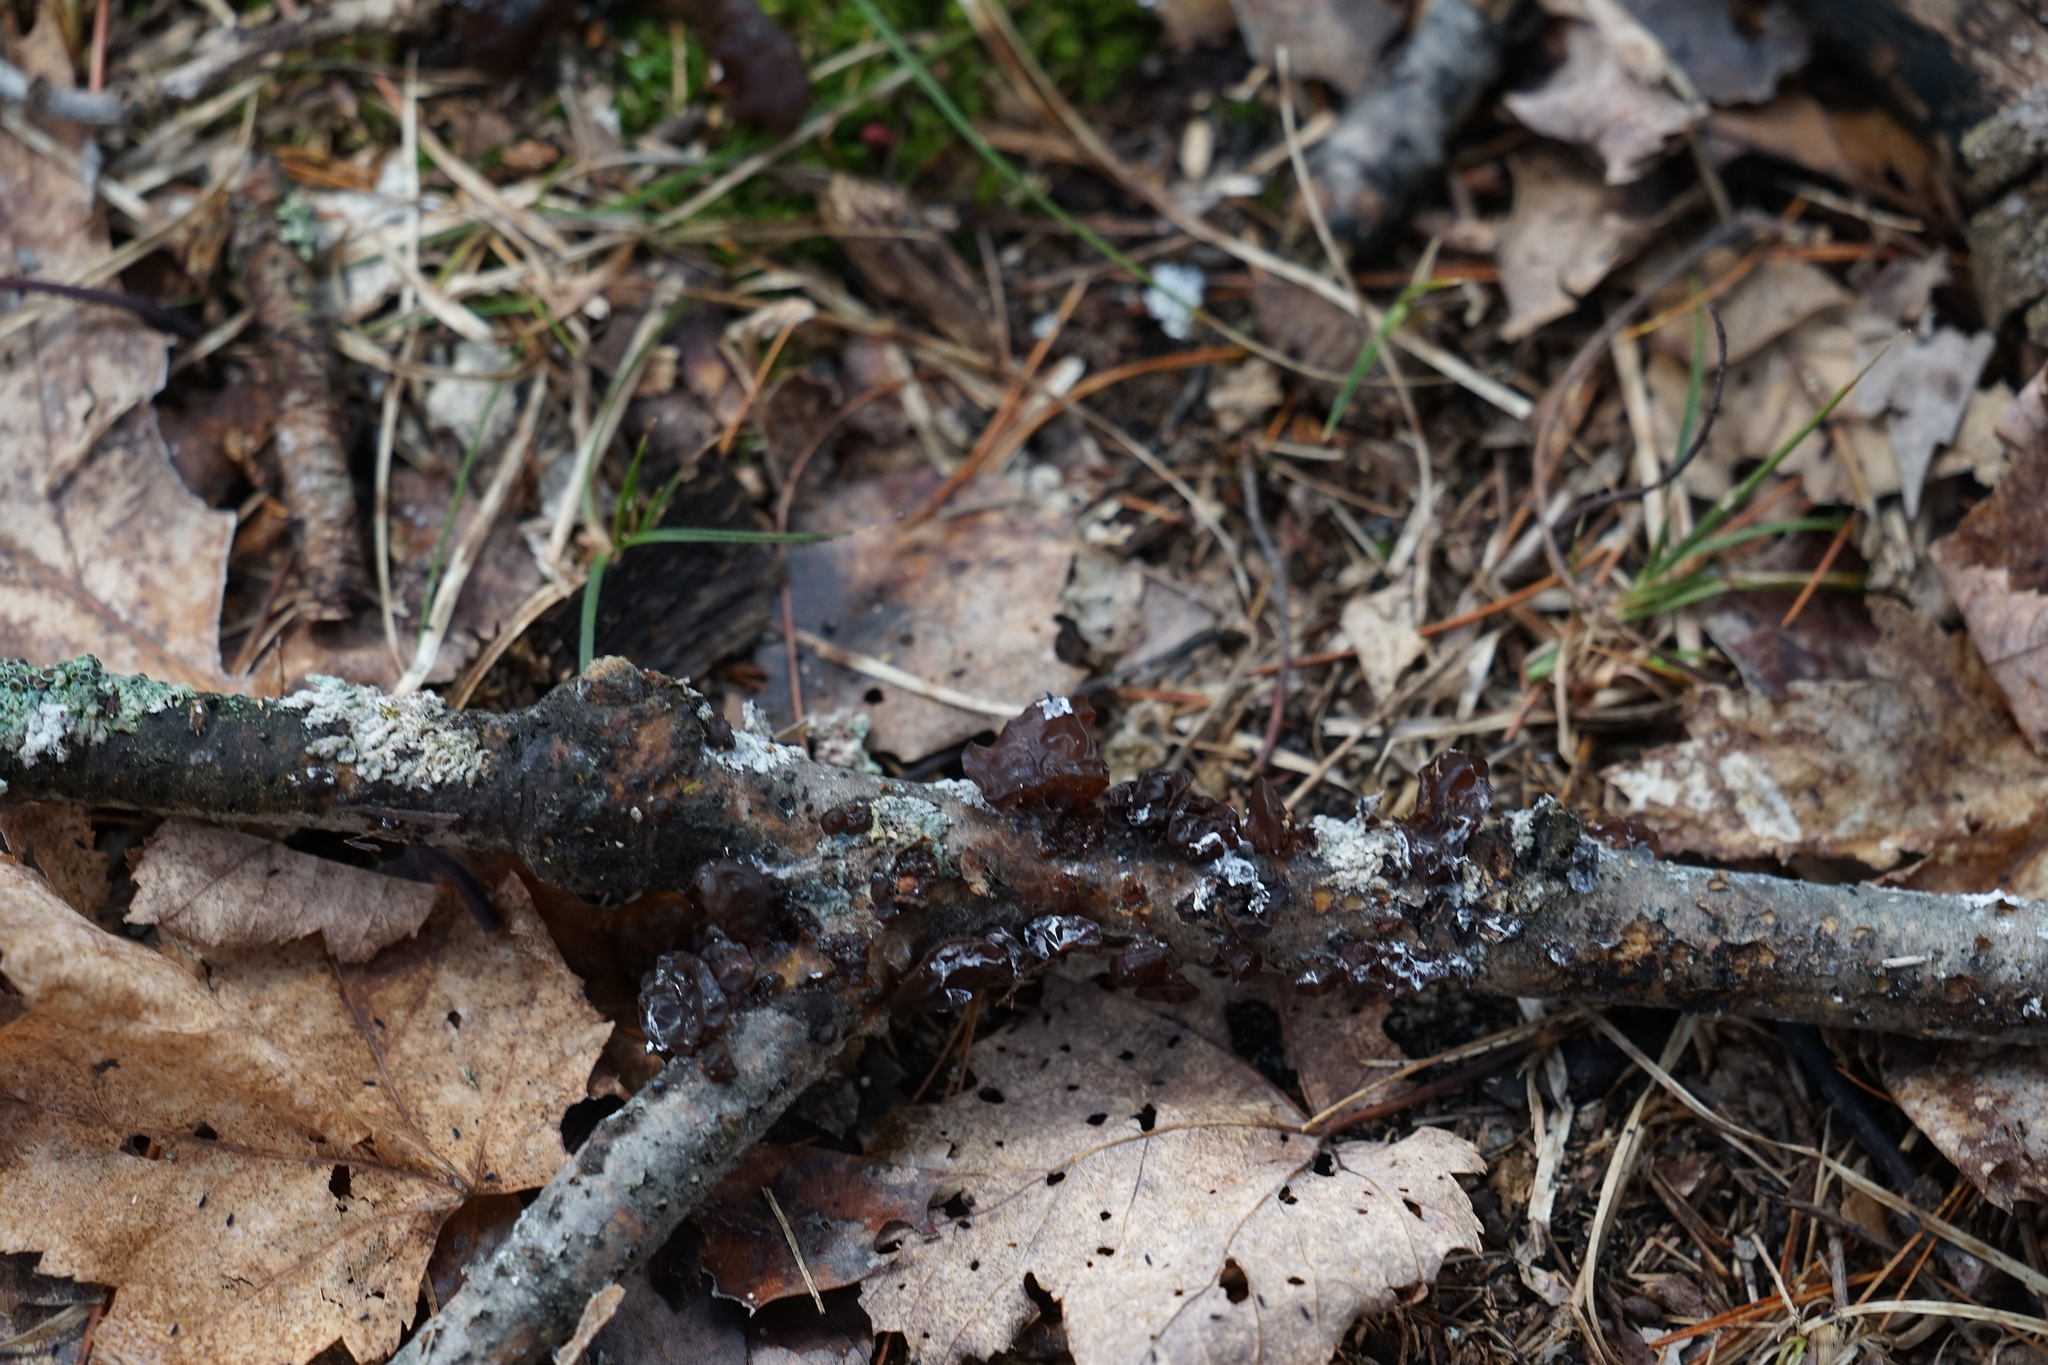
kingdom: Fungi
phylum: Basidiomycota
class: Agaricomycetes
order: Auriculariales
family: Auriculariaceae
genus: Exidia
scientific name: Exidia
